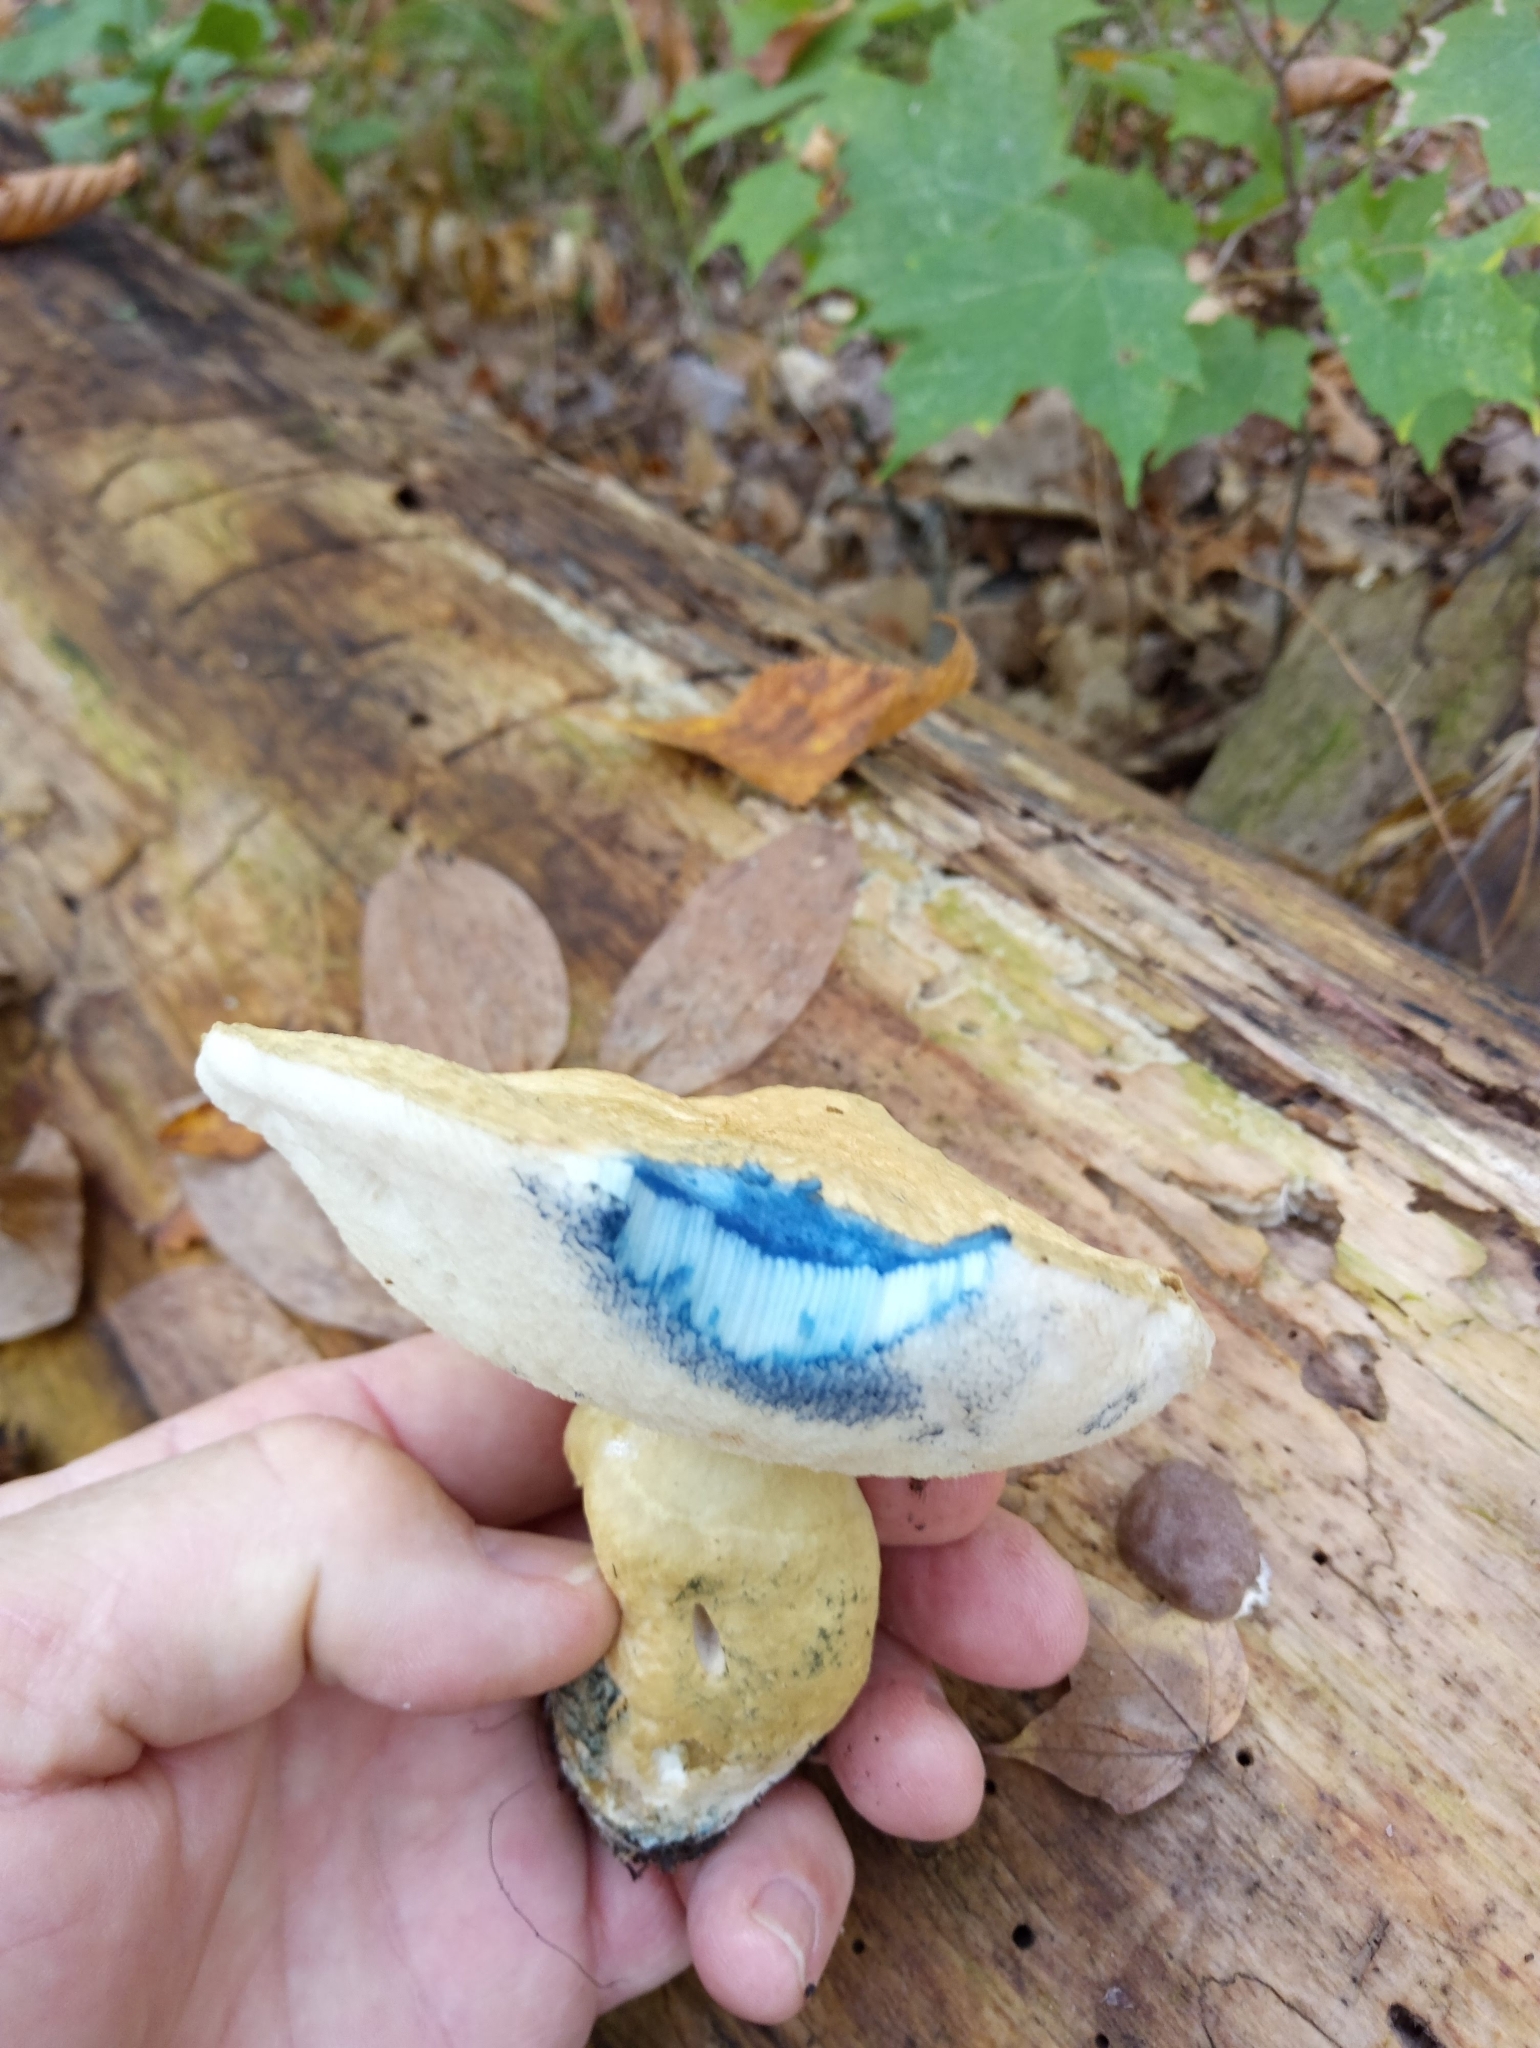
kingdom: Fungi
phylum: Basidiomycota
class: Agaricomycetes
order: Boletales
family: Gyroporaceae
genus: Gyroporus
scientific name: Gyroporus cyanescens
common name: Cornflower bolete
